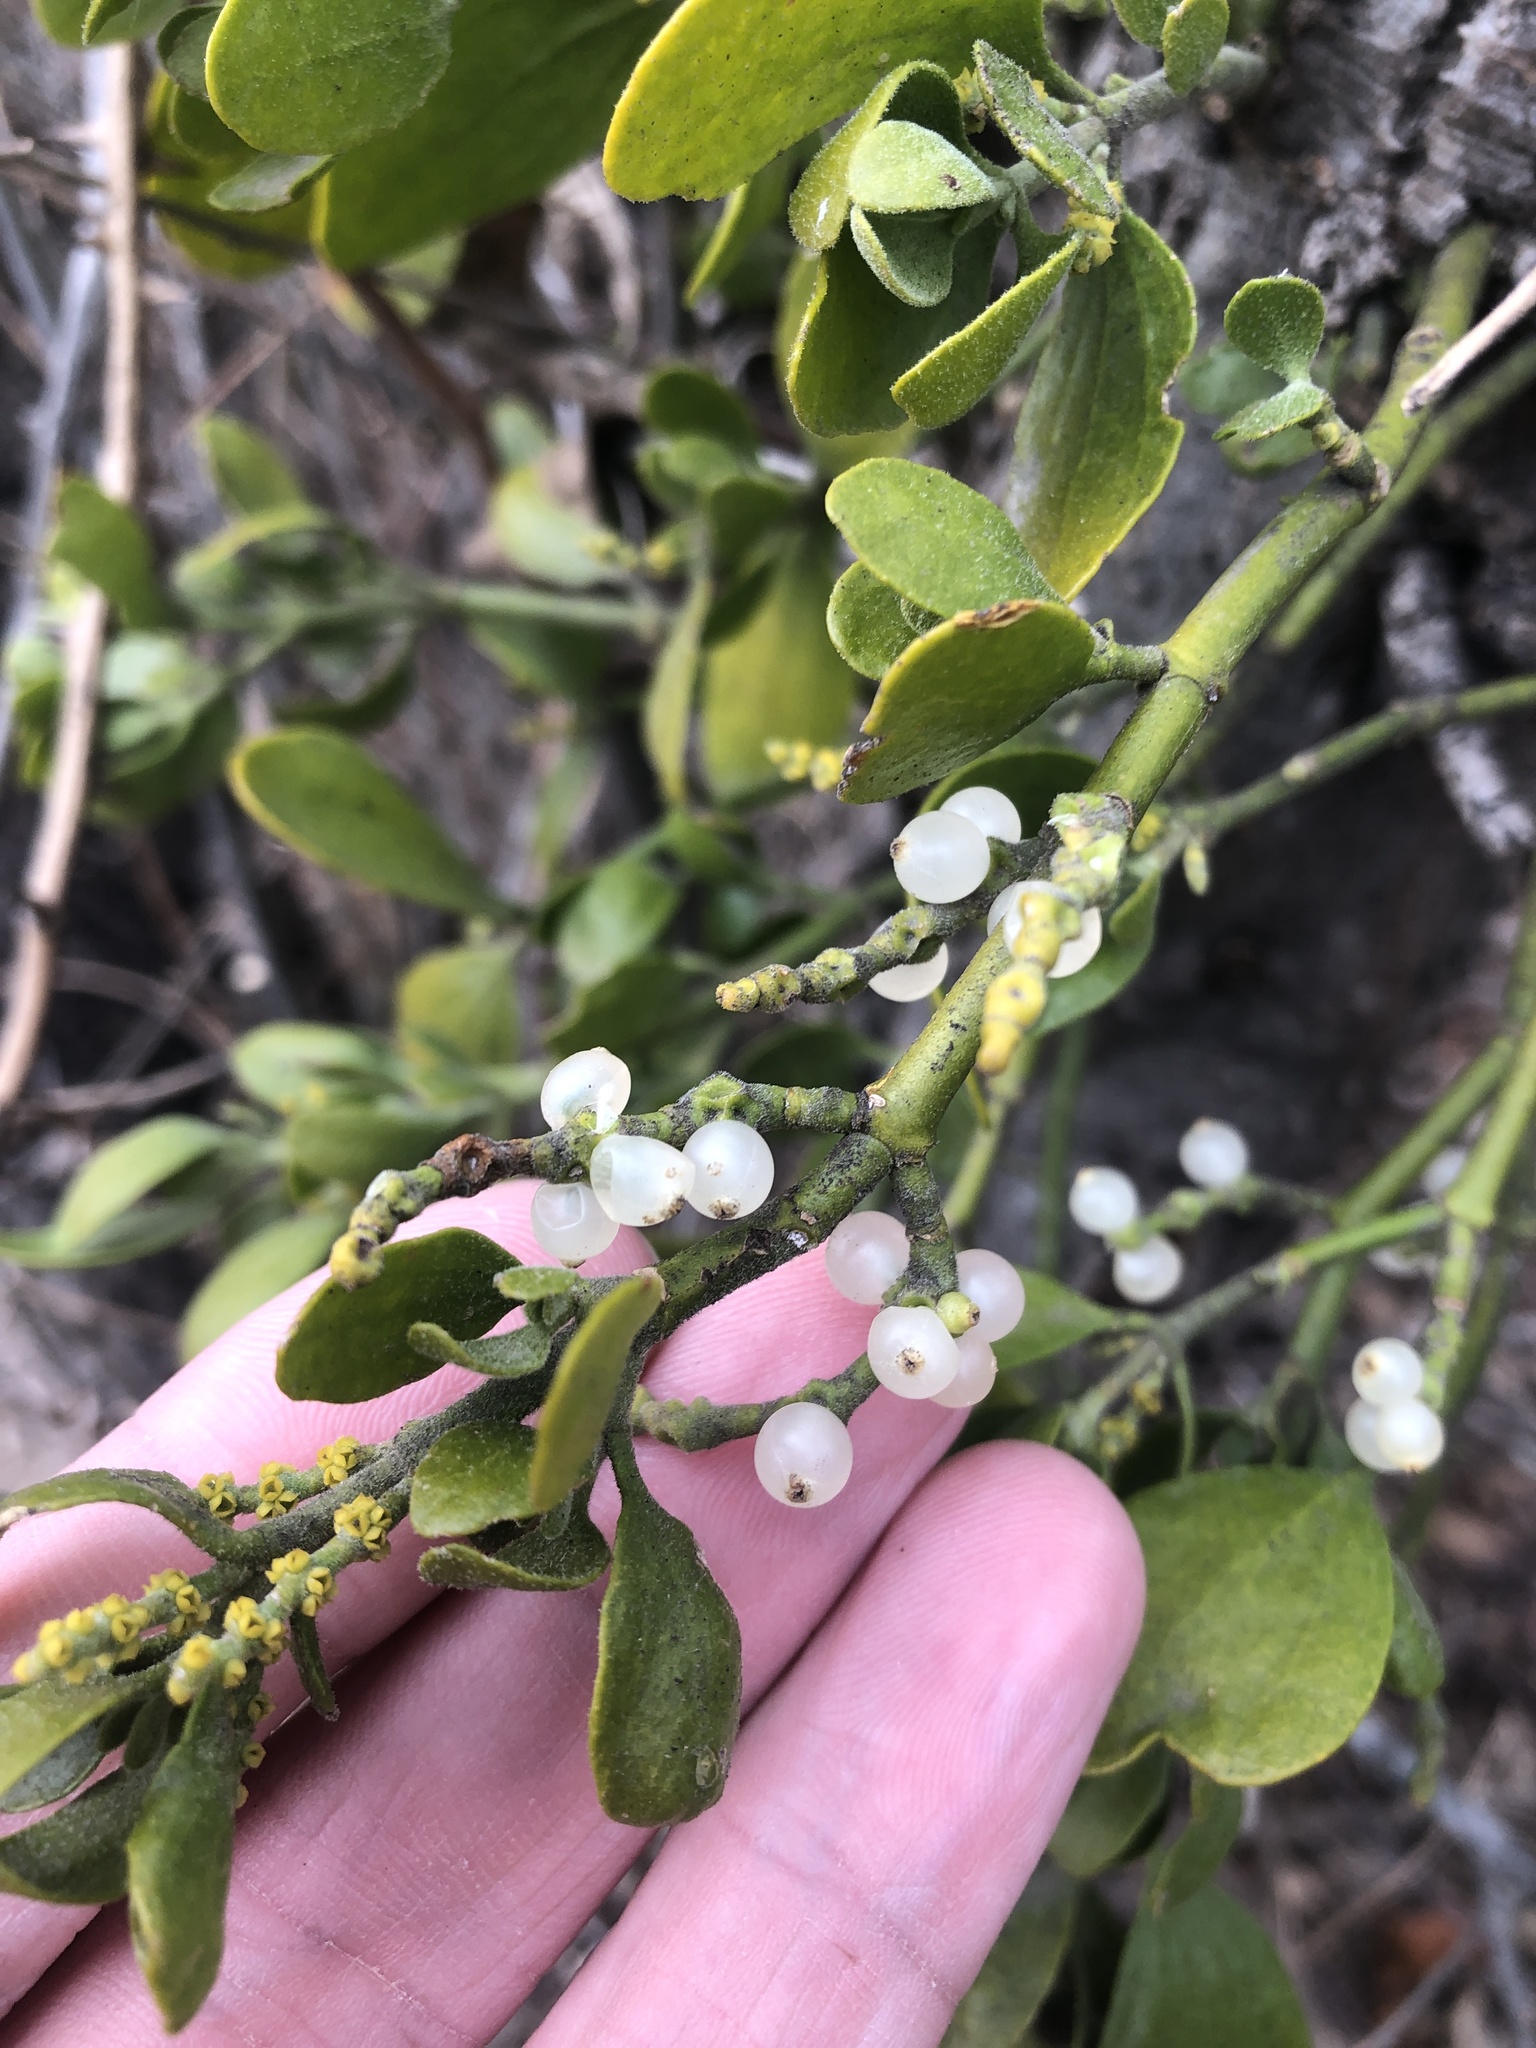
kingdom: Plantae
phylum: Tracheophyta
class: Magnoliopsida
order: Santalales
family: Viscaceae
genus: Phoradendron
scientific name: Phoradendron leucarpum
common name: Pacific mistletoe
